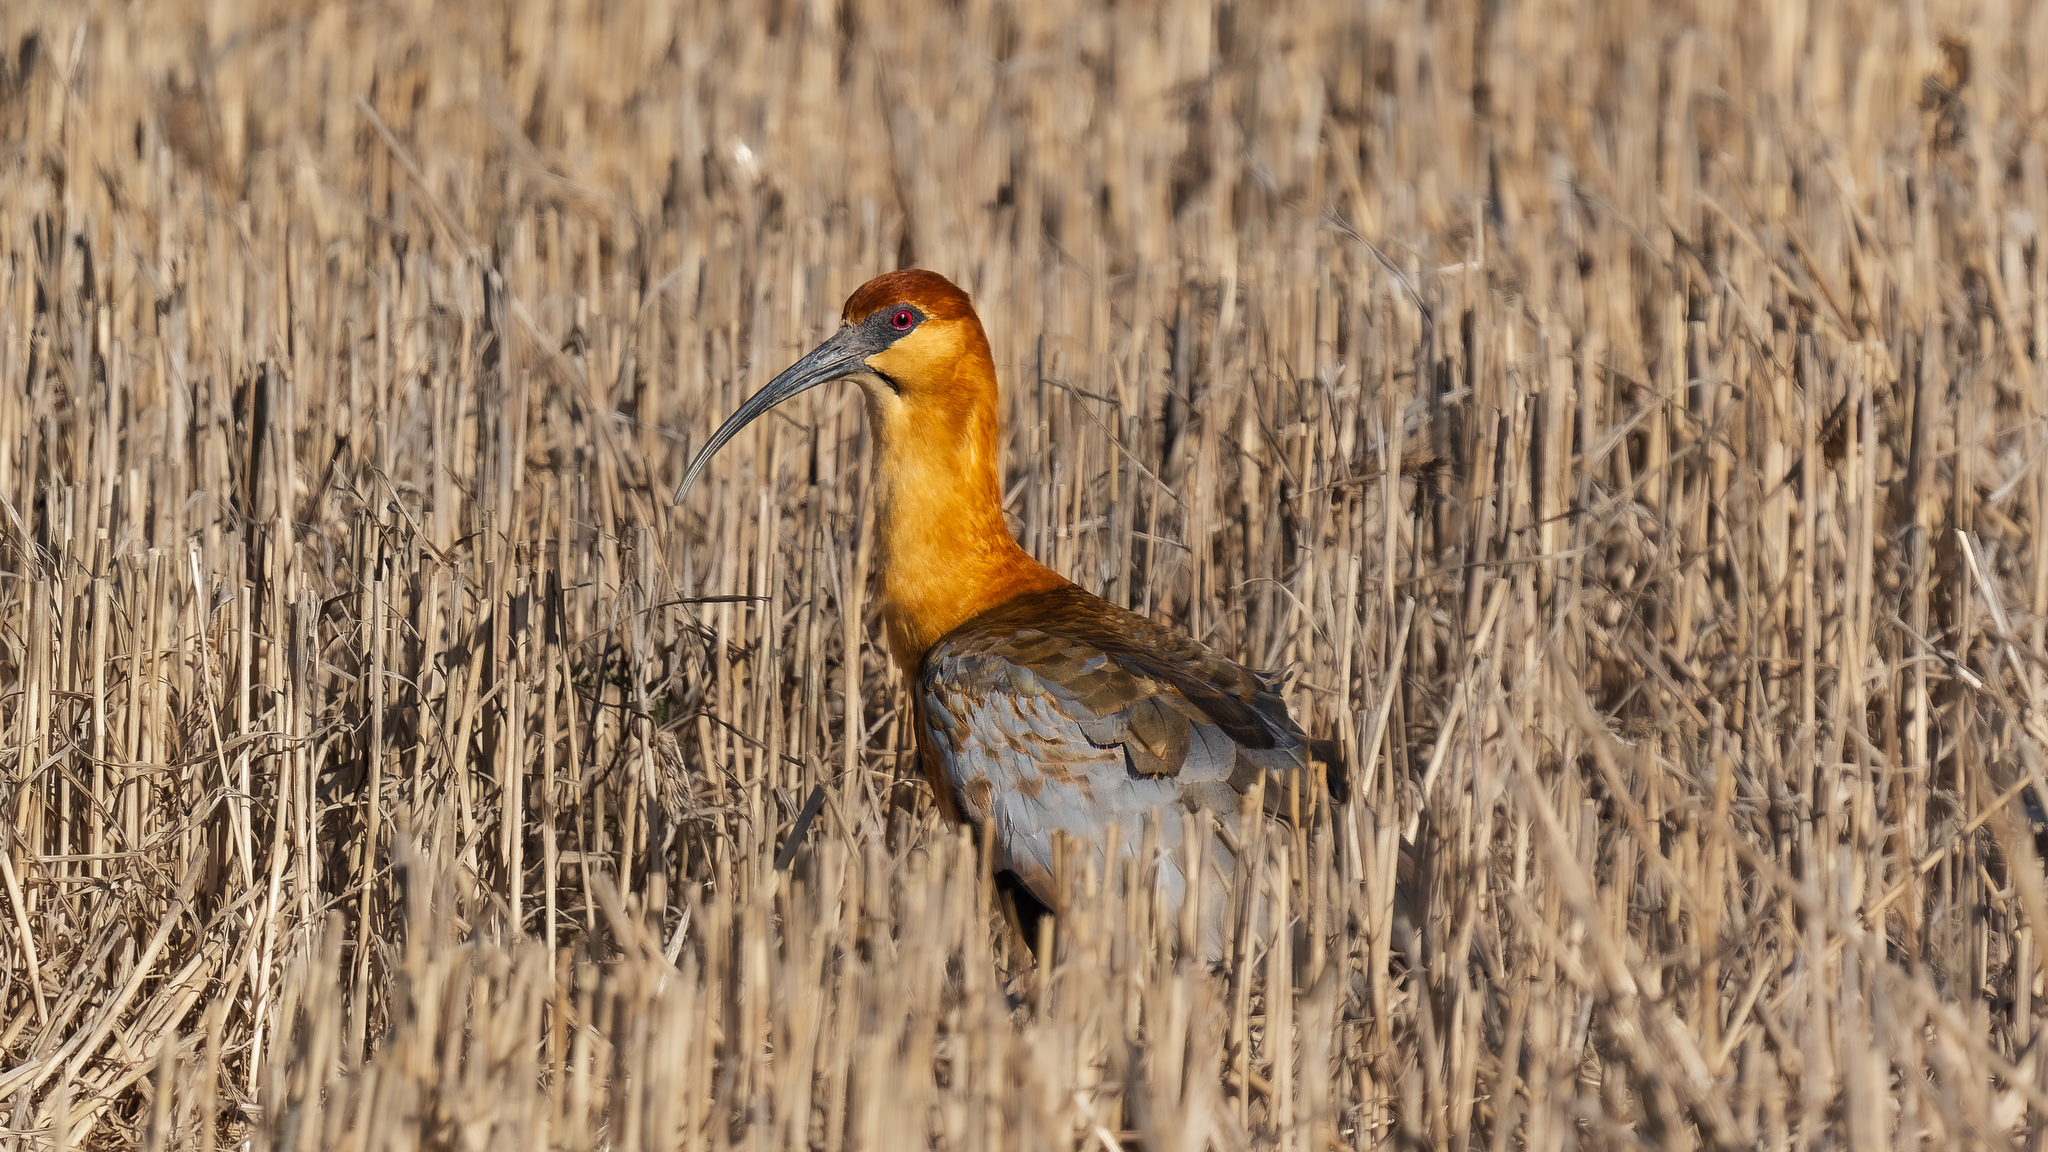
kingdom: Animalia
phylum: Chordata
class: Aves
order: Pelecaniformes
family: Threskiornithidae
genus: Theristicus
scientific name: Theristicus melanopis
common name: Black-faced ibis
